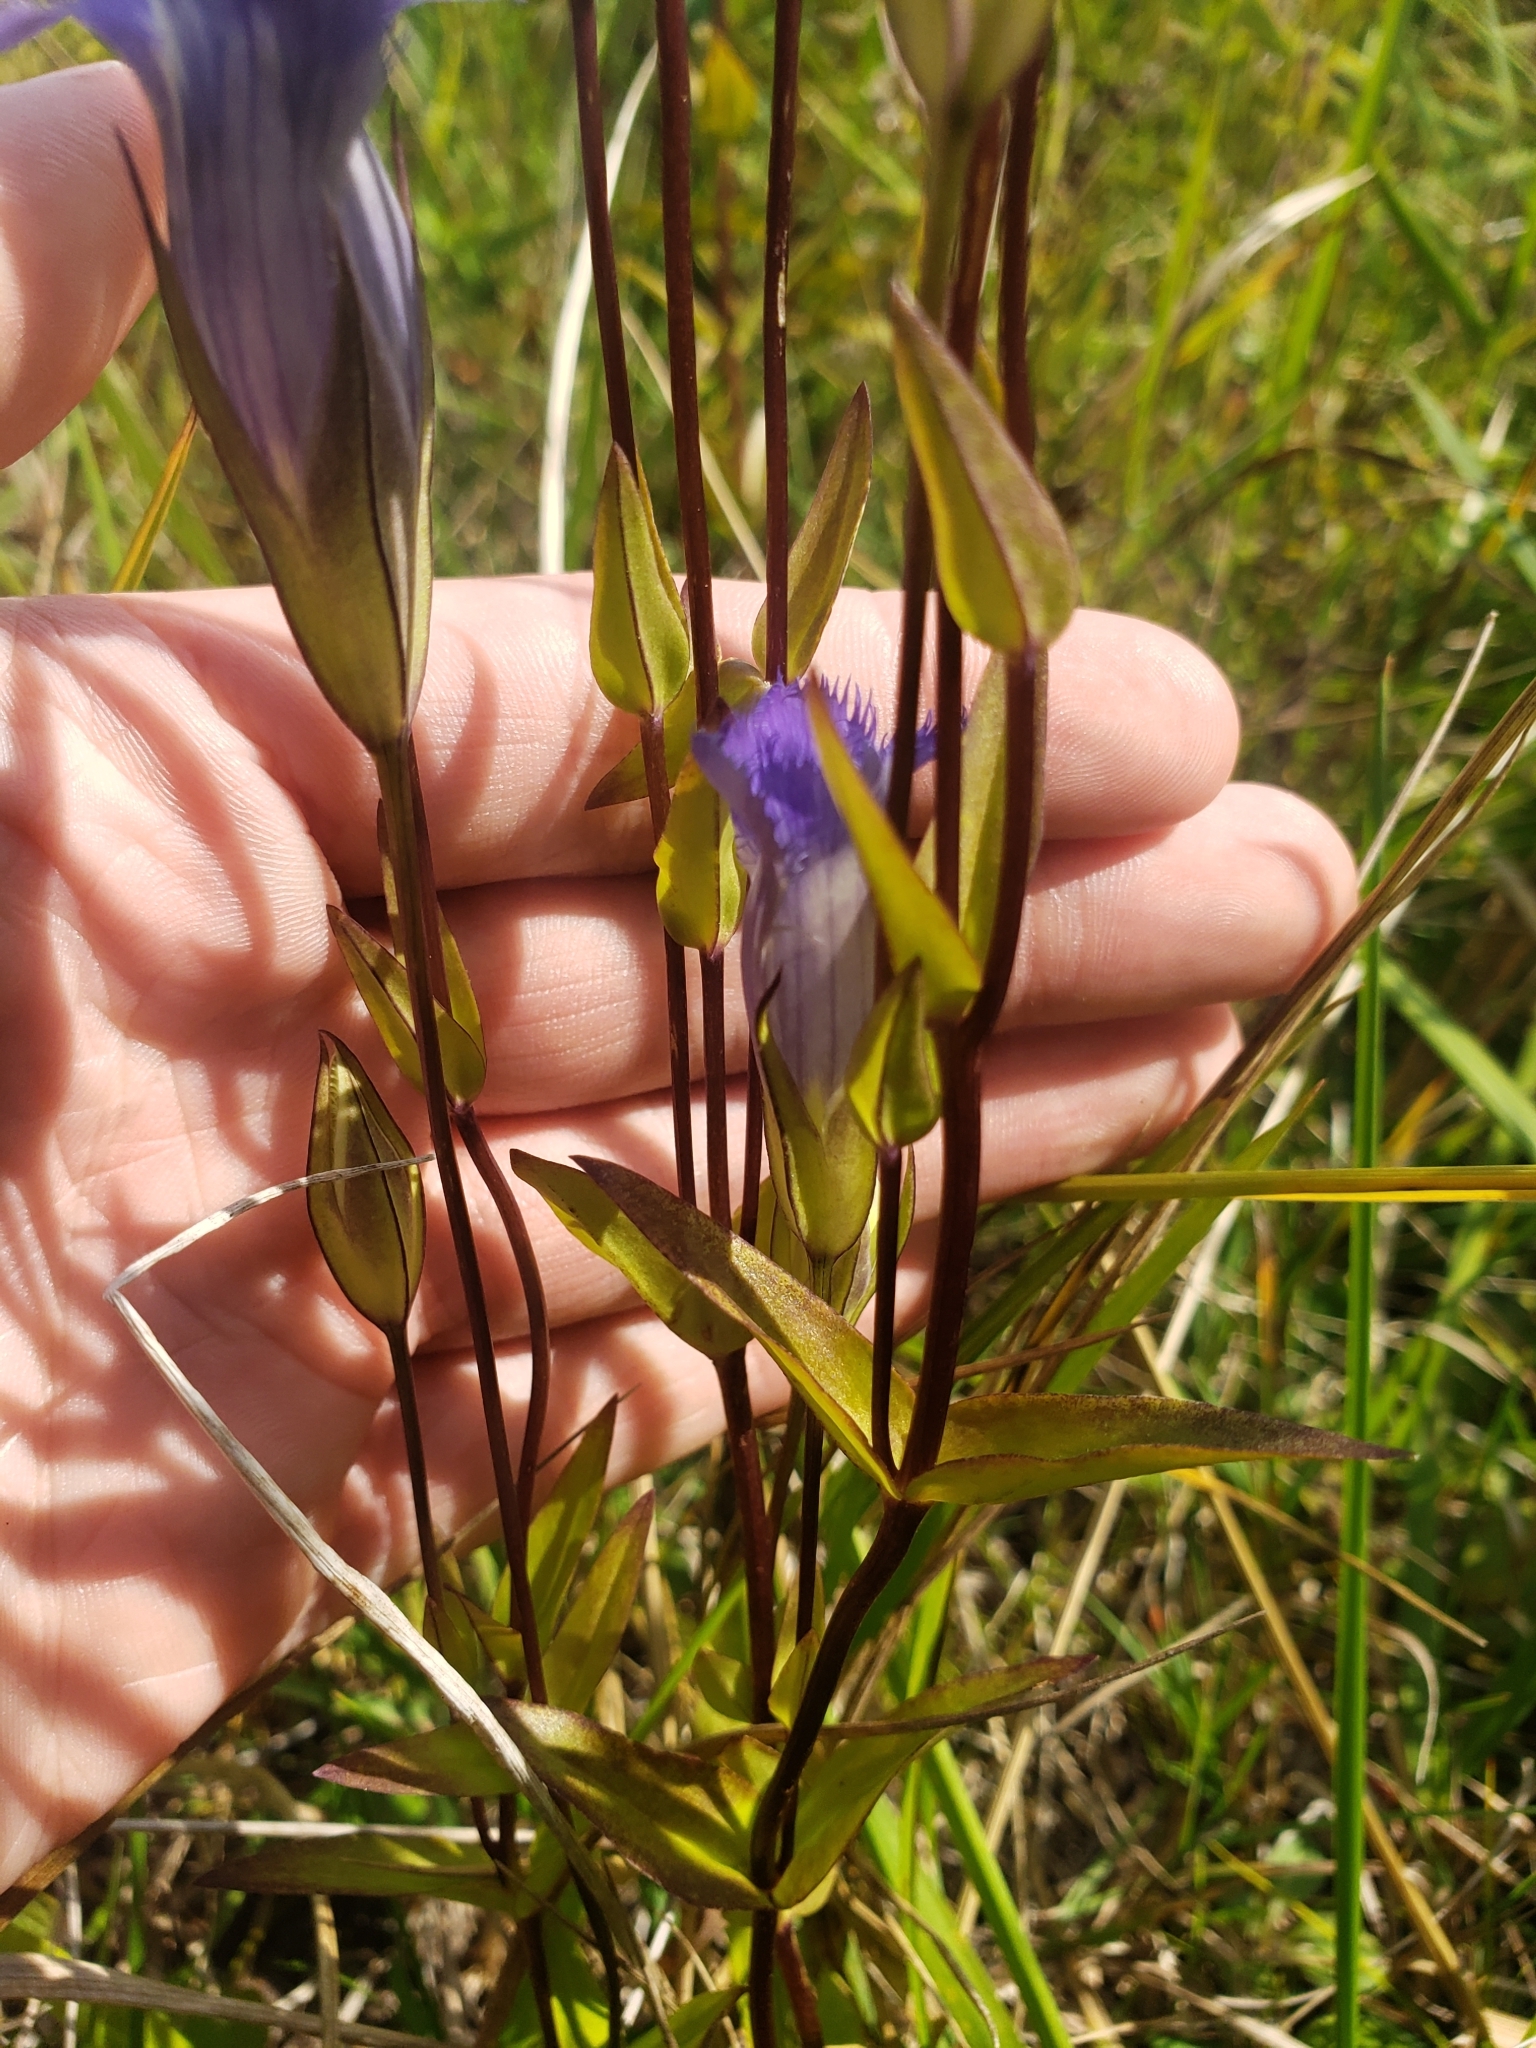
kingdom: Plantae
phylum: Tracheophyta
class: Magnoliopsida
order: Gentianales
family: Gentianaceae
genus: Gentianopsis
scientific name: Gentianopsis crinita
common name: Fringed-gentian
